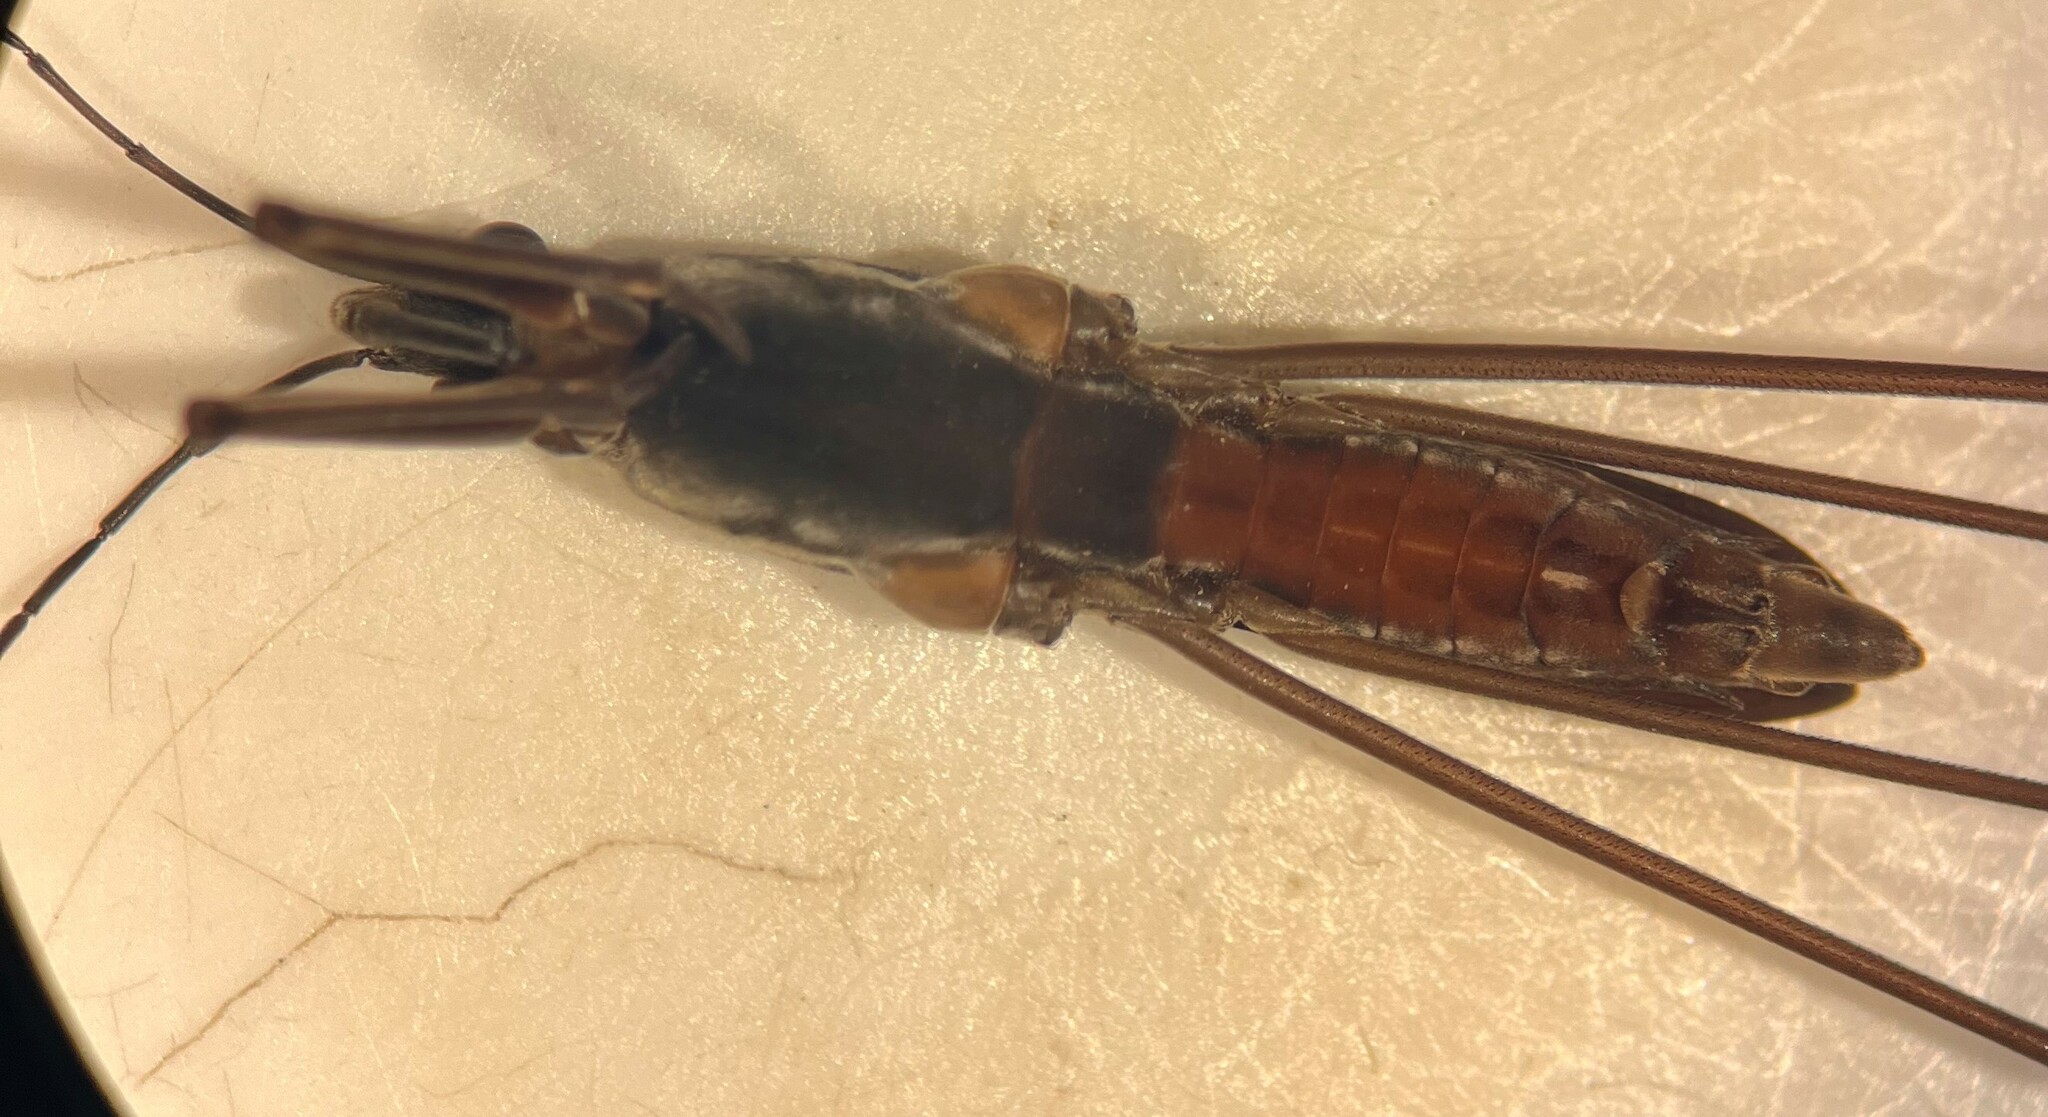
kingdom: Animalia
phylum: Arthropoda
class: Insecta
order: Hemiptera
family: Gerridae
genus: Aquarius
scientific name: Aquarius remigis
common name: Common water strider
